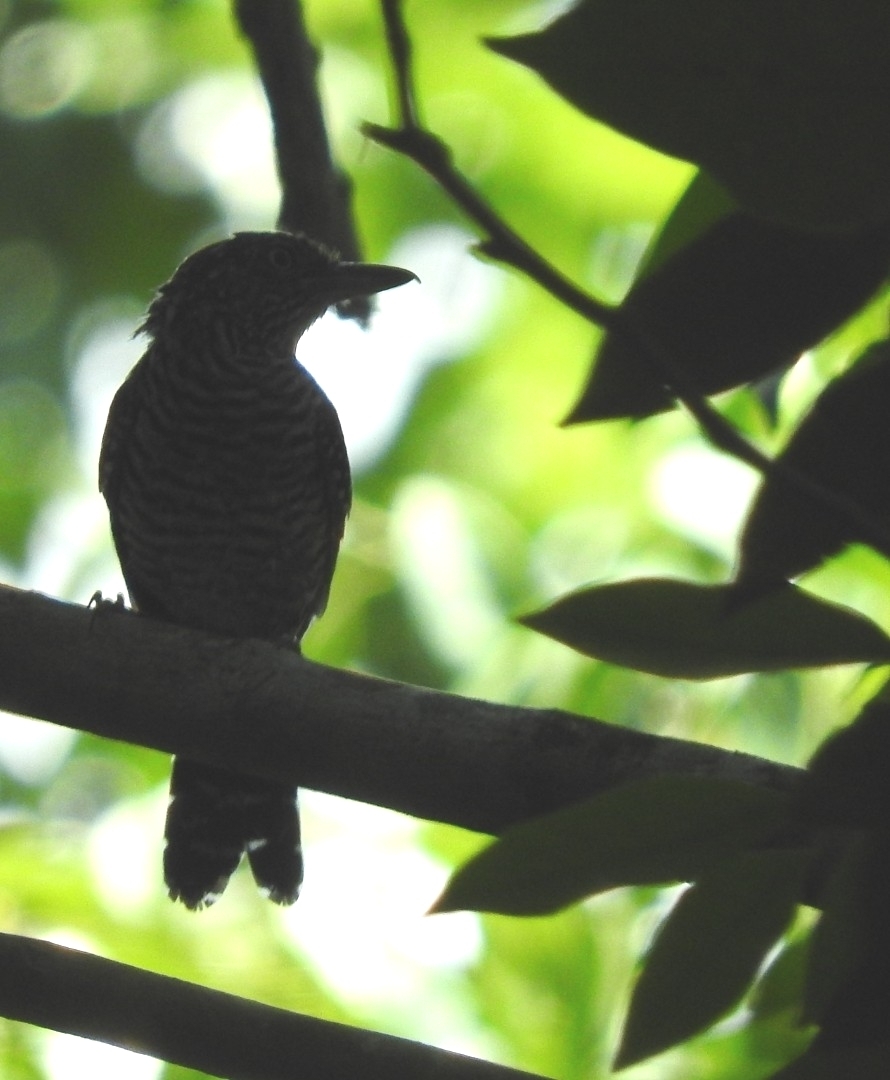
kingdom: Animalia
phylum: Chordata
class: Aves
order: Passeriformes
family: Thamnophilidae
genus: Thamnophilus
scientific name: Thamnophilus doliatus
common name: Barred antshrike
